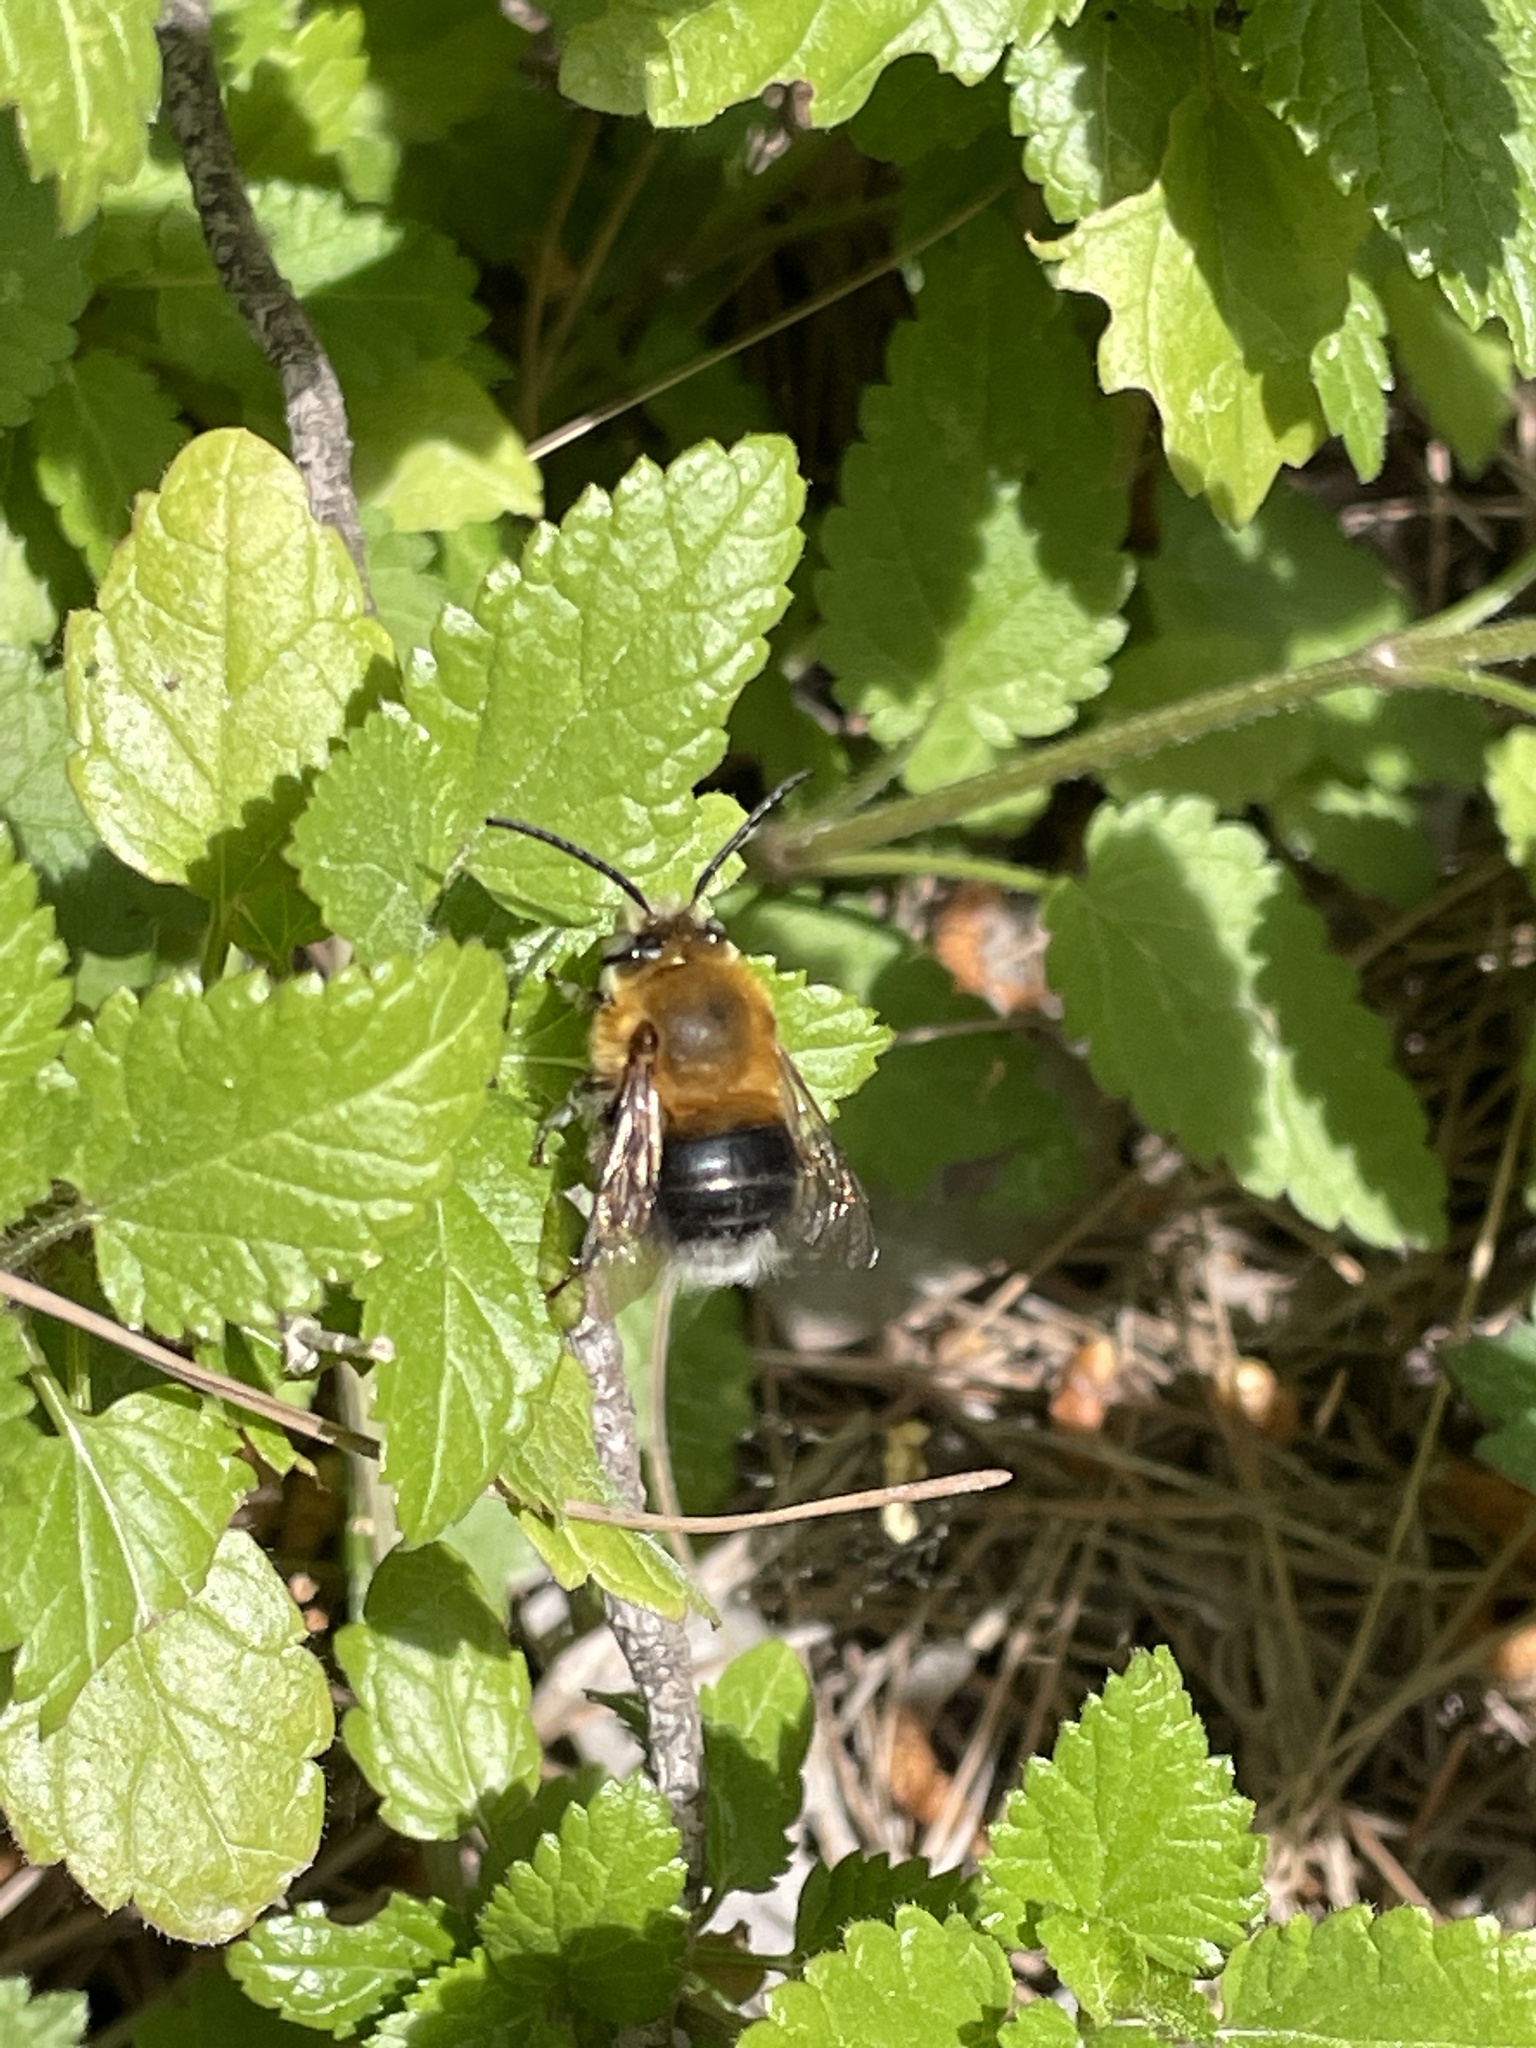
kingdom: Animalia
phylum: Arthropoda
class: Insecta
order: Hymenoptera
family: Apidae
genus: Habropoda
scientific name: Habropoda tarsata
